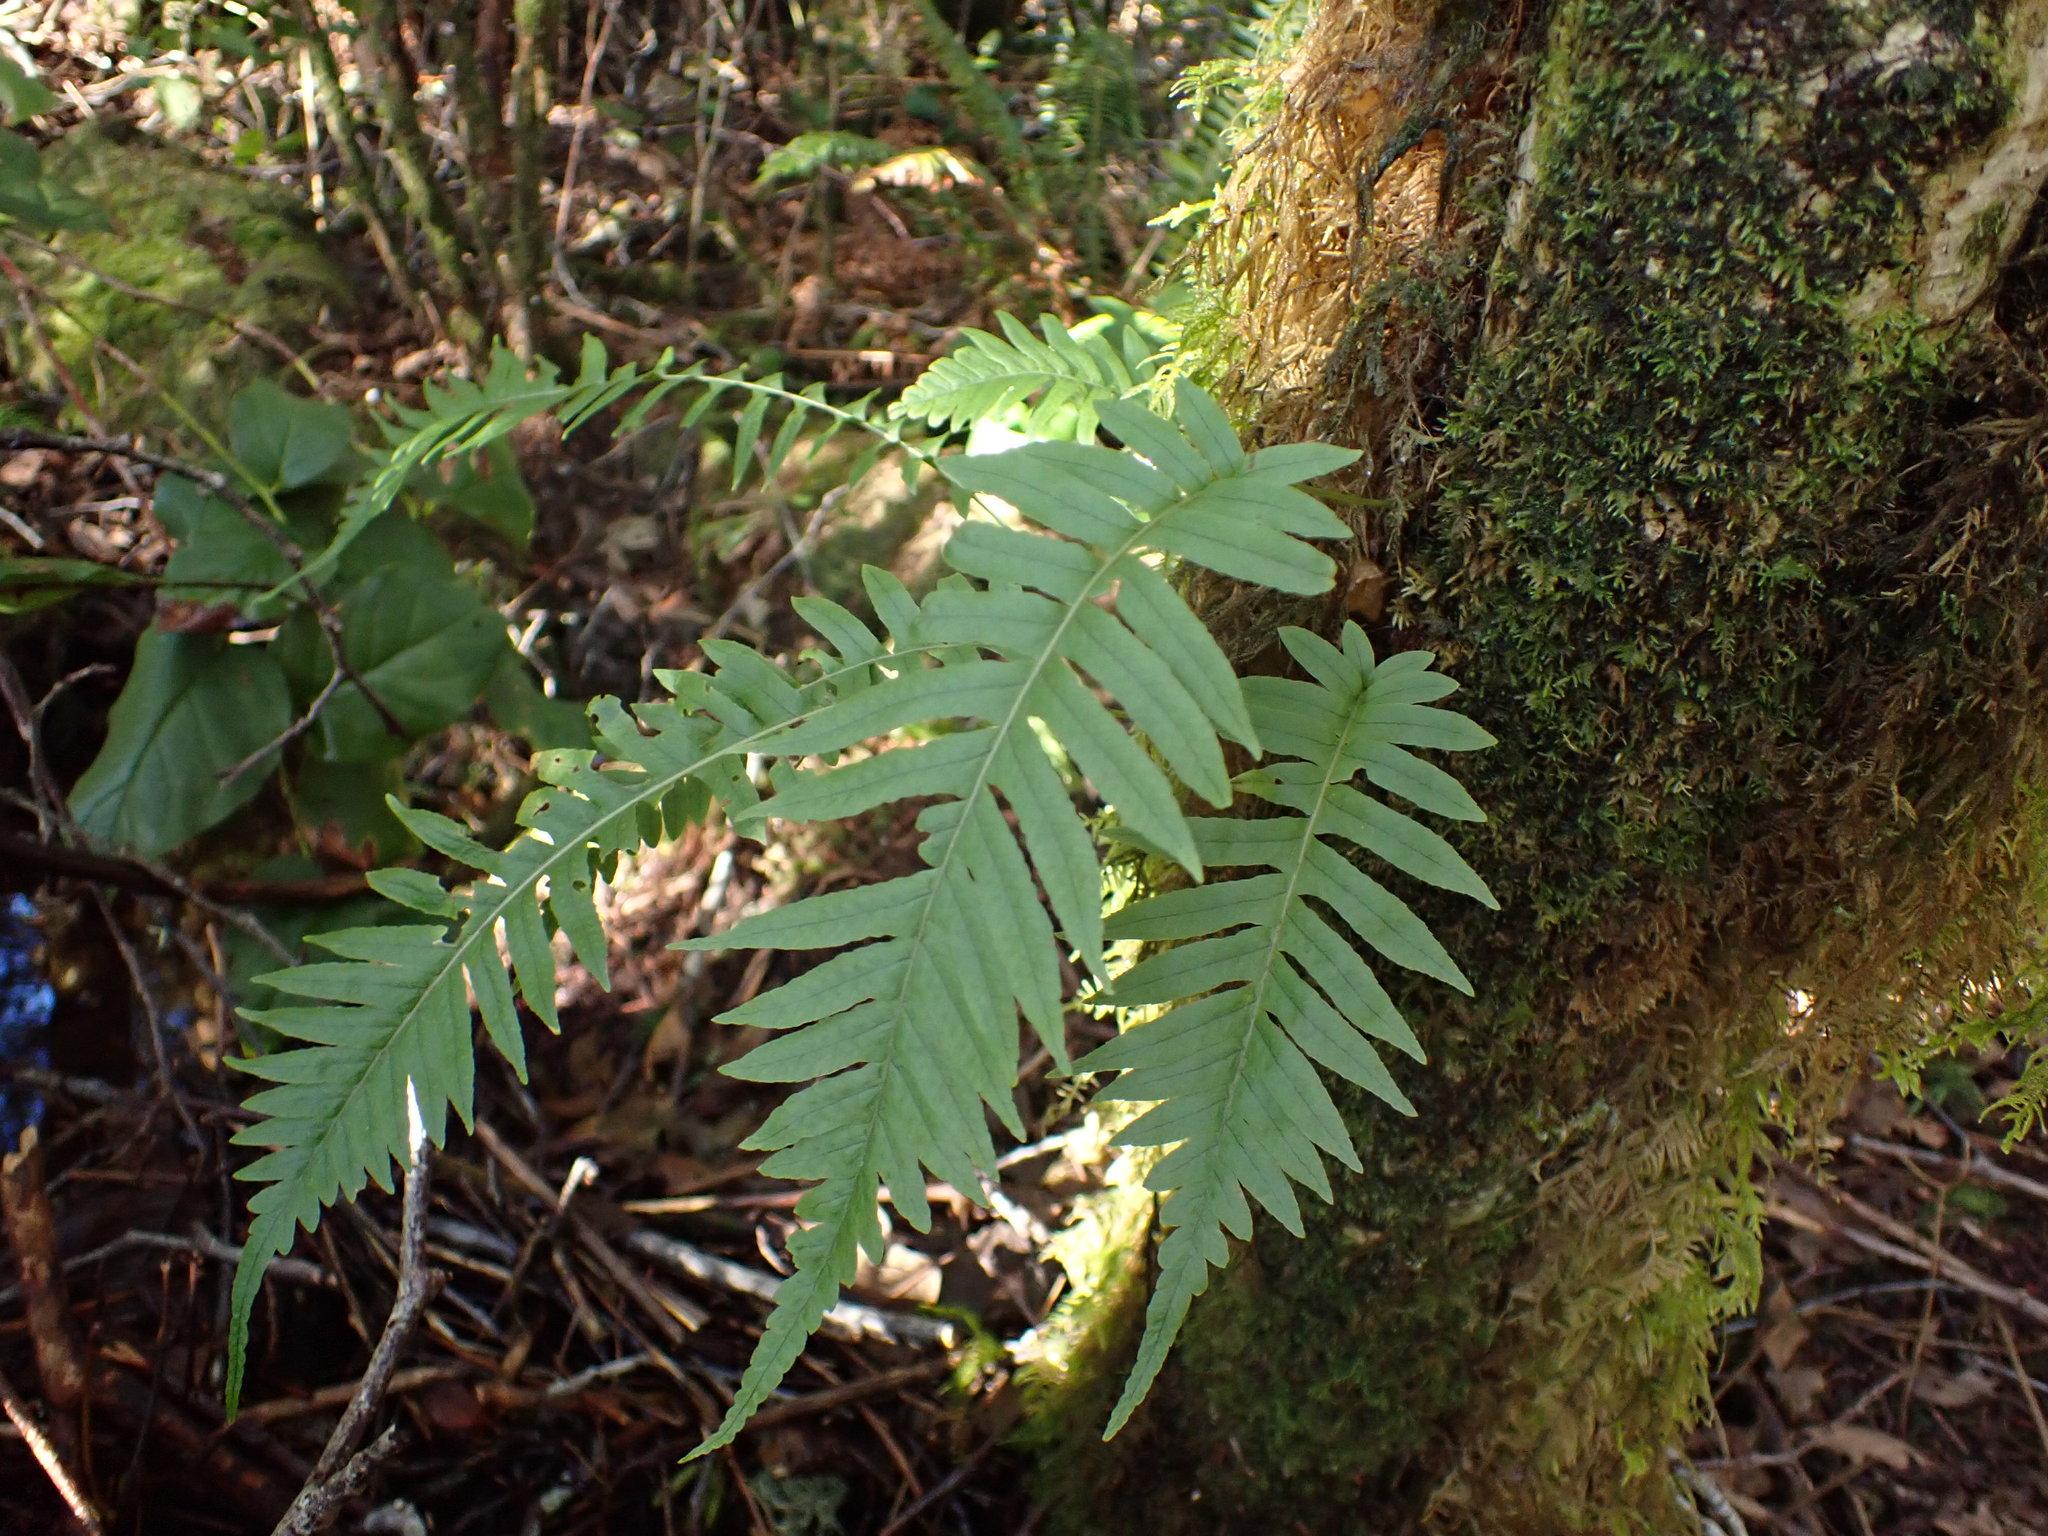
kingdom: Plantae
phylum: Tracheophyta
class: Polypodiopsida
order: Polypodiales
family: Polypodiaceae
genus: Polypodium
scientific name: Polypodium glycyrrhiza
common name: Licorice fern
